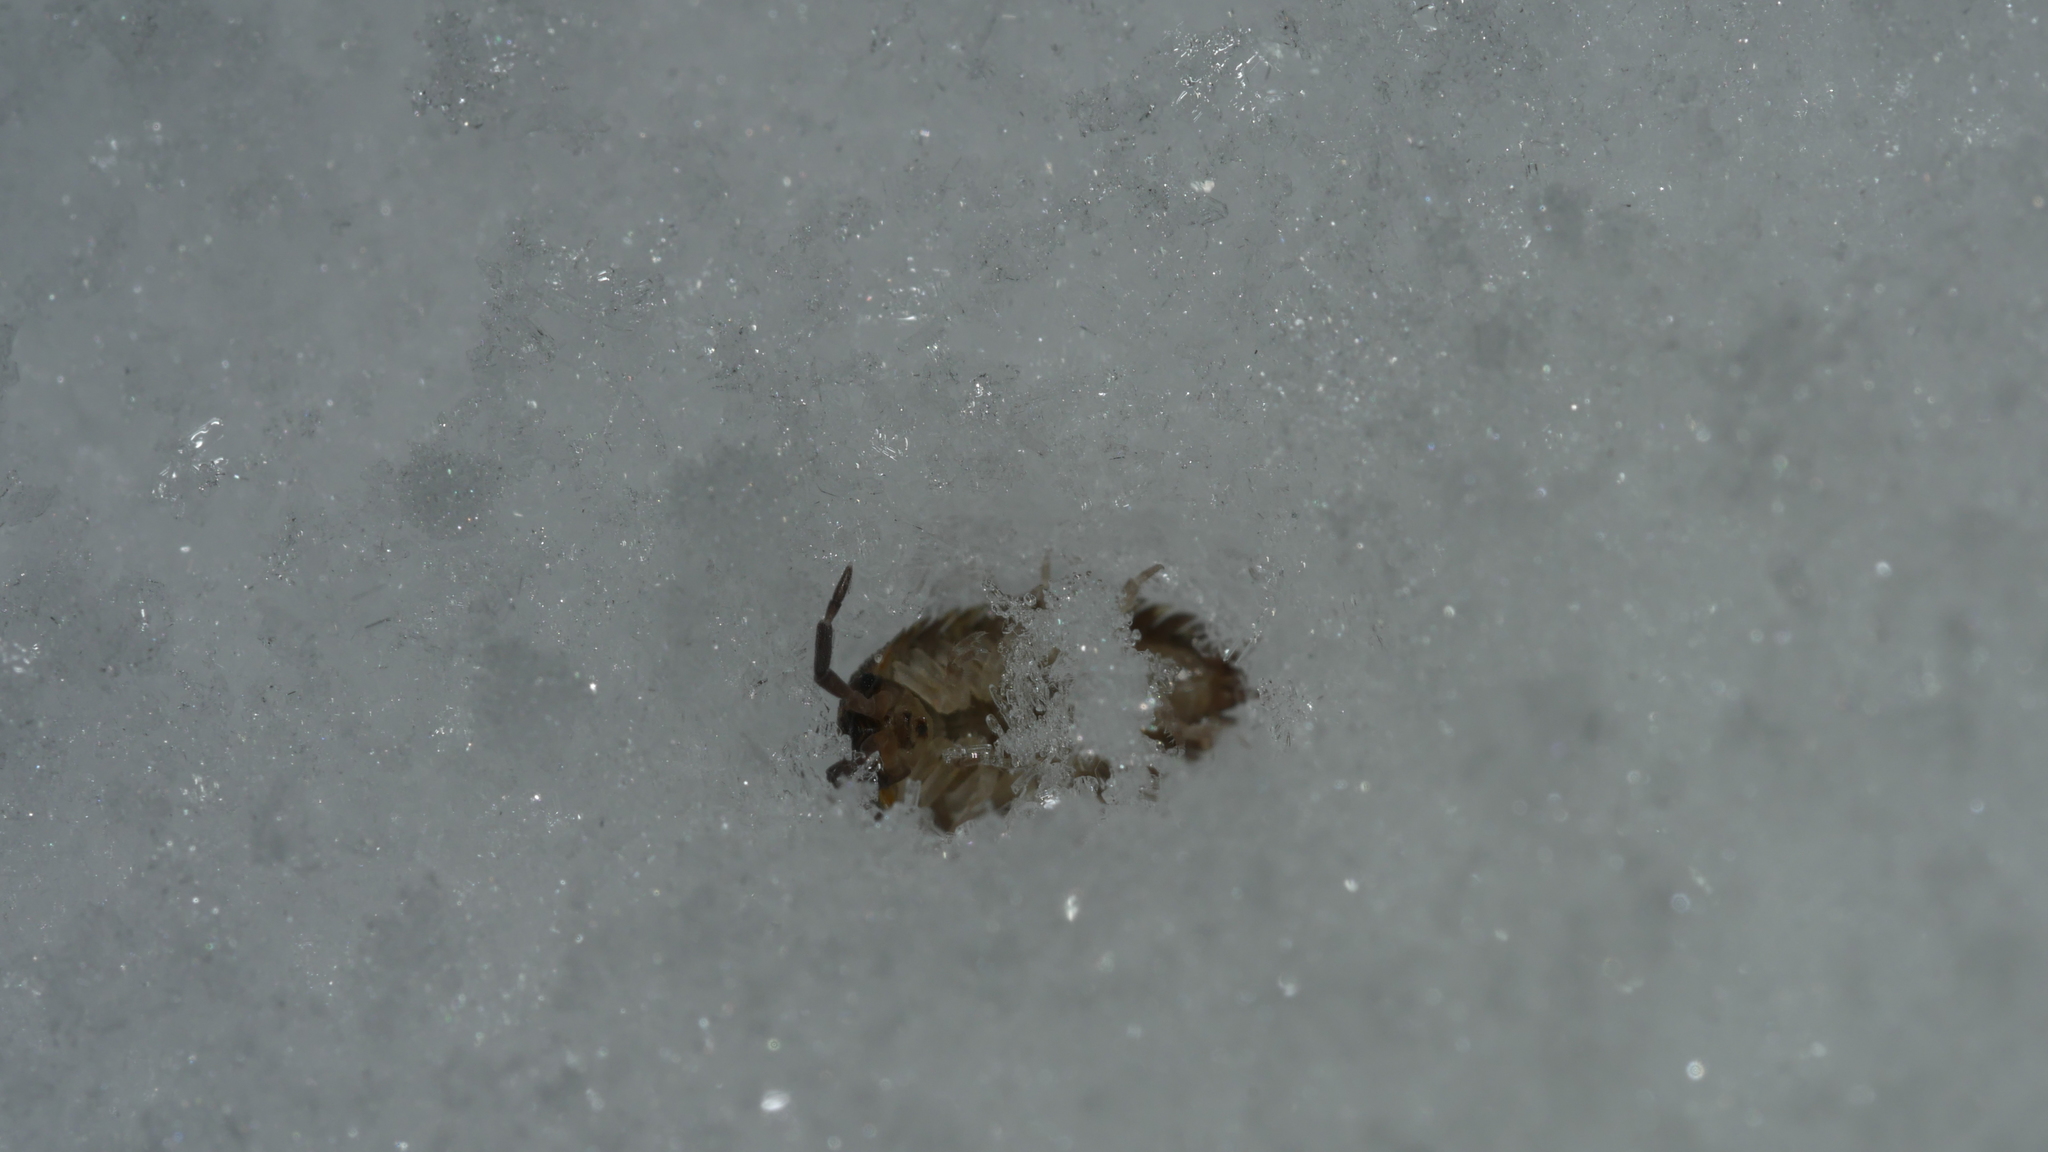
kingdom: Animalia
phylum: Arthropoda
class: Malacostraca
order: Isopoda
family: Porcellionidae
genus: Porcellio
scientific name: Porcellio scaber
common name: Common rough woodlouse
